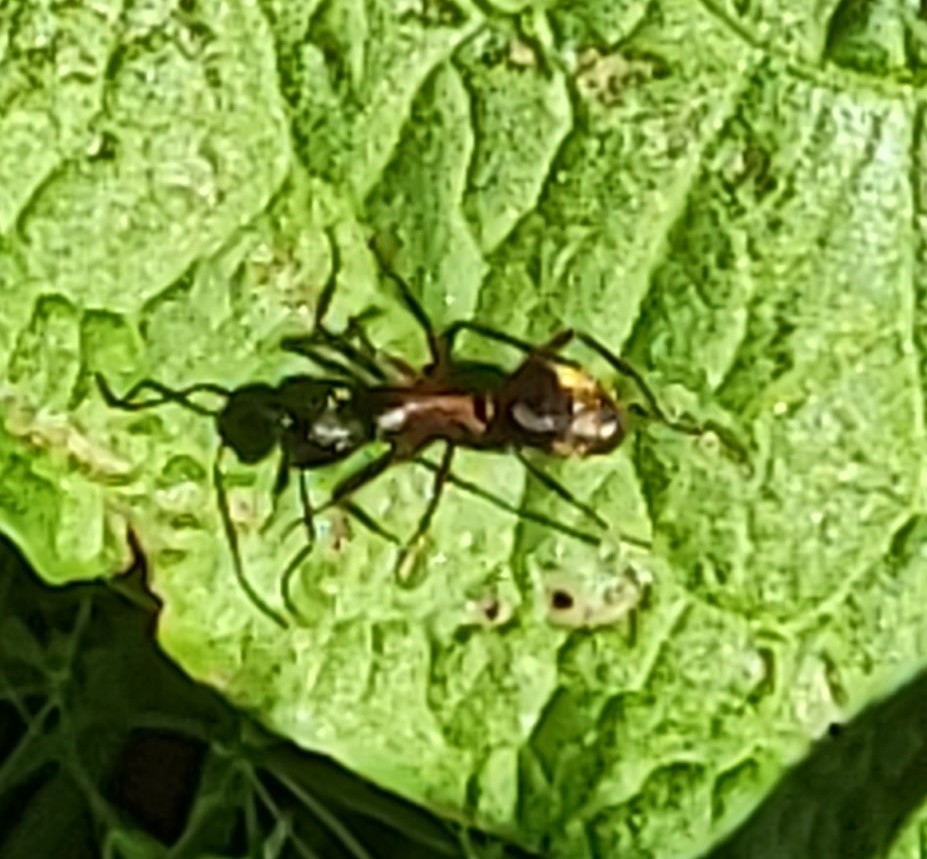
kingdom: Animalia
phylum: Arthropoda
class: Insecta
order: Hymenoptera
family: Formicidae
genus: Camponotus
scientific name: Camponotus chromaiodes
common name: Red carpenter ant
